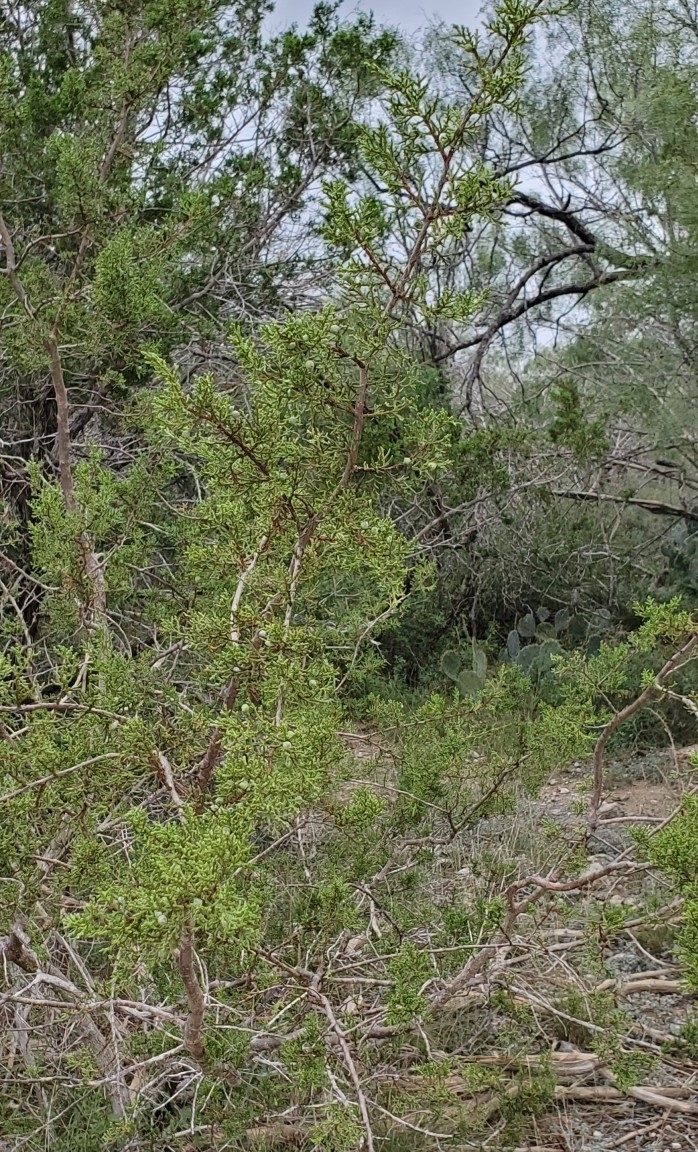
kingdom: Plantae
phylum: Tracheophyta
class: Pinopsida
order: Pinales
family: Cupressaceae
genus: Juniperus
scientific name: Juniperus ashei
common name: Mexican juniper
